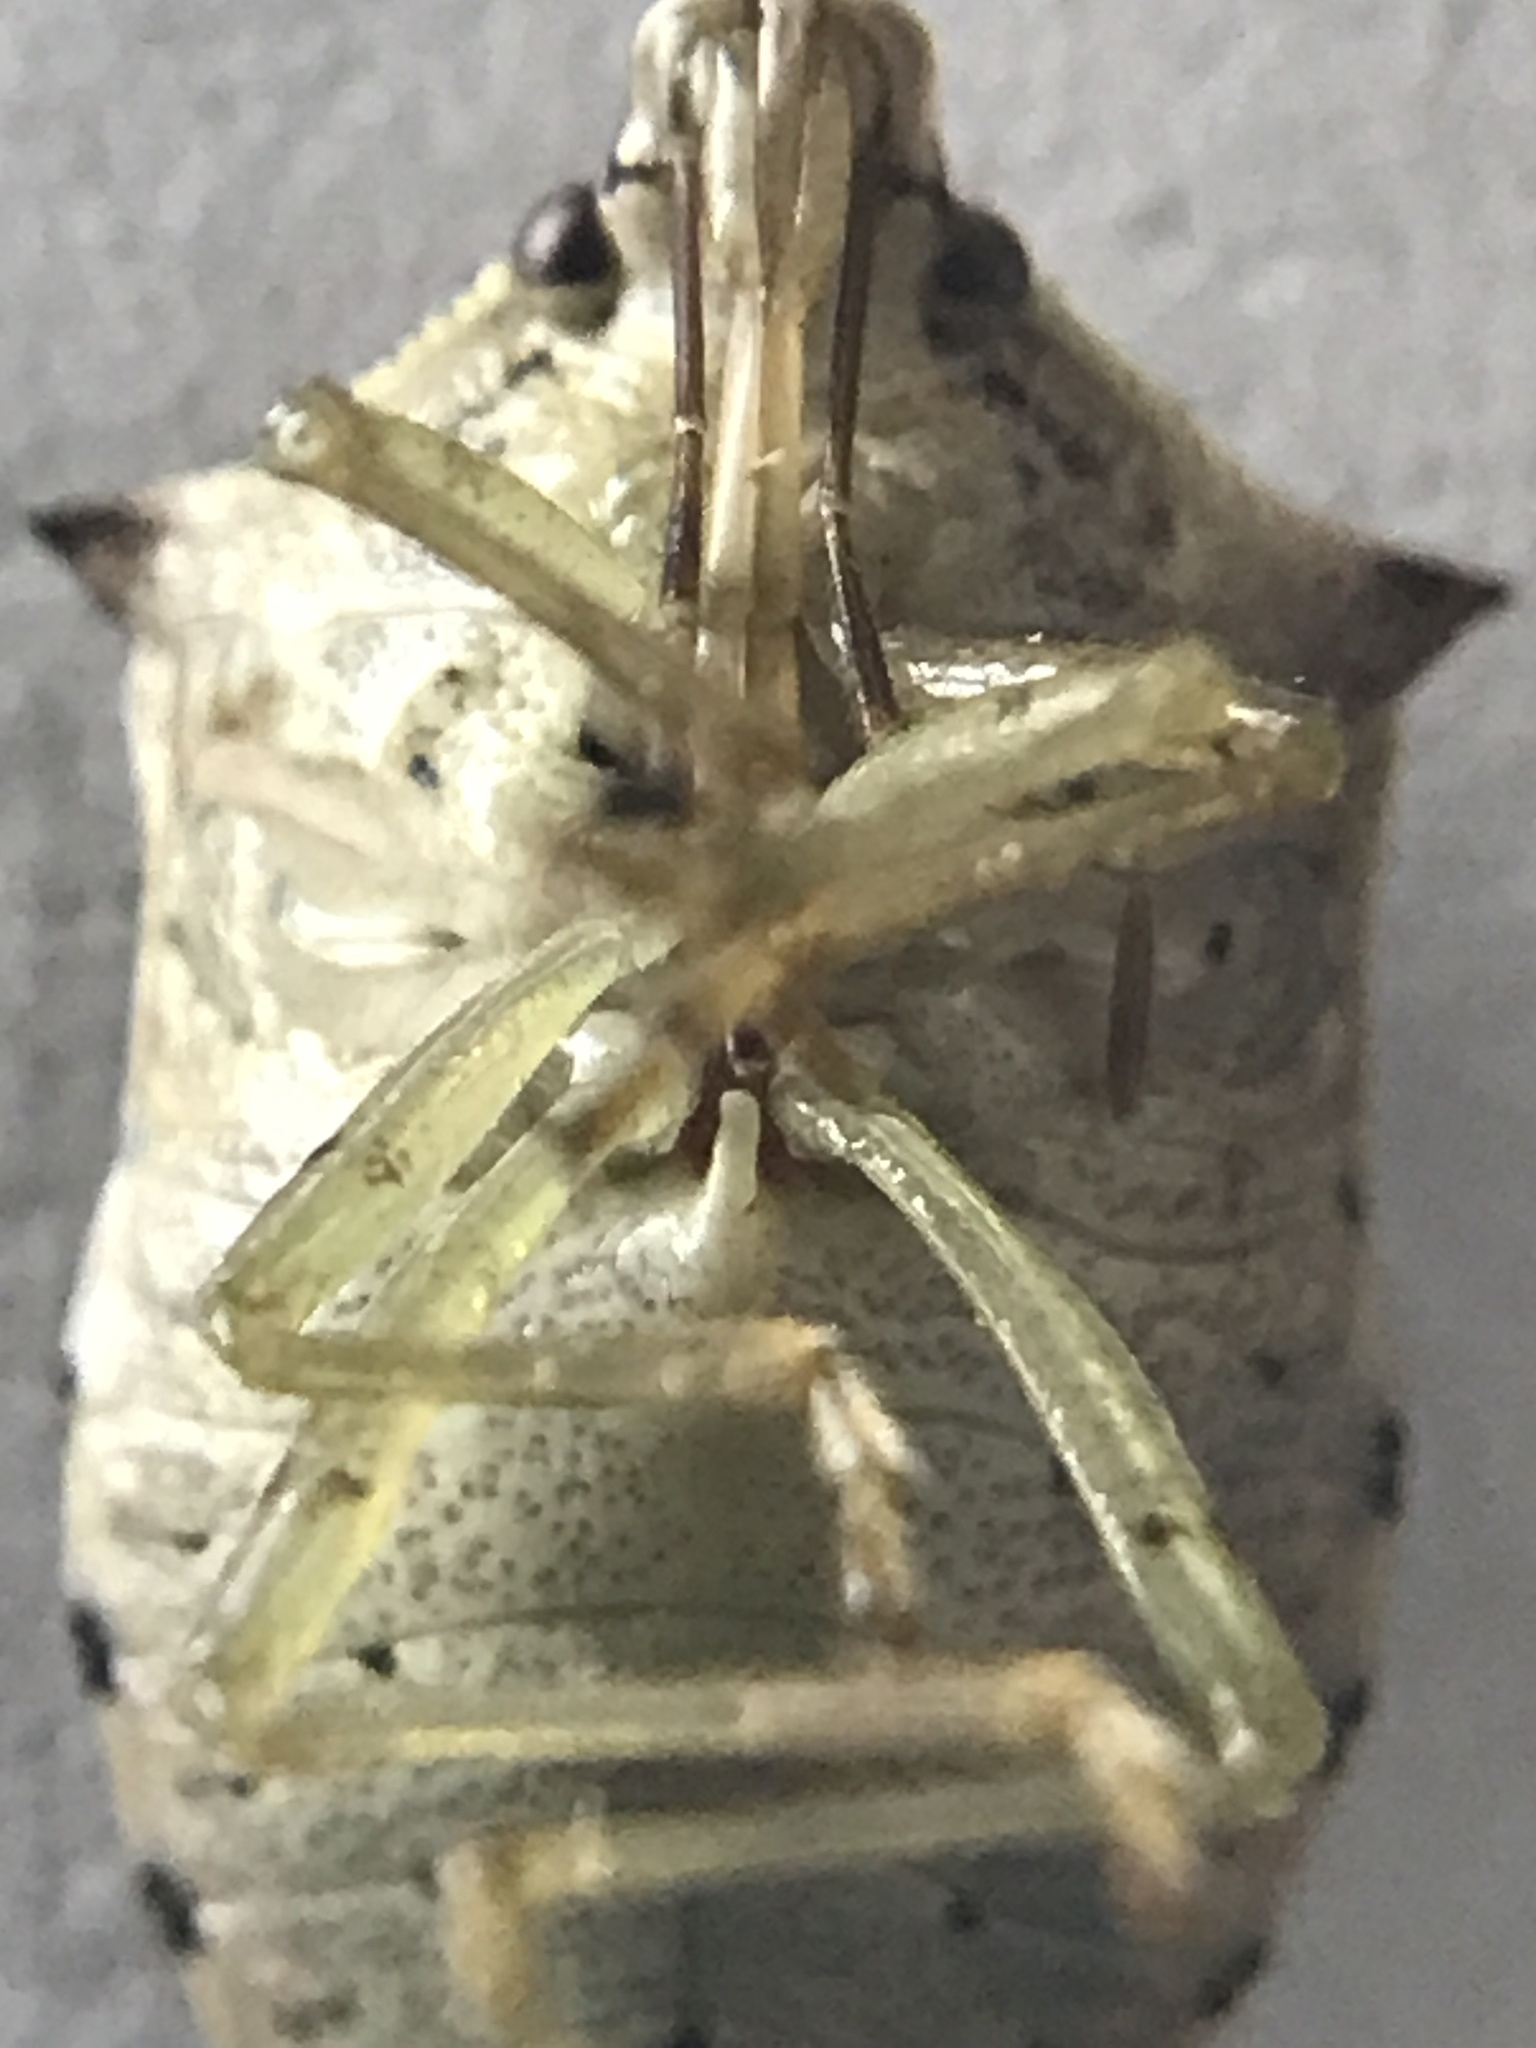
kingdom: Animalia
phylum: Arthropoda
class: Insecta
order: Hemiptera
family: Pentatomidae
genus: Podisus
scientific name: Podisus maculiventris
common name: Spined soldier bug
